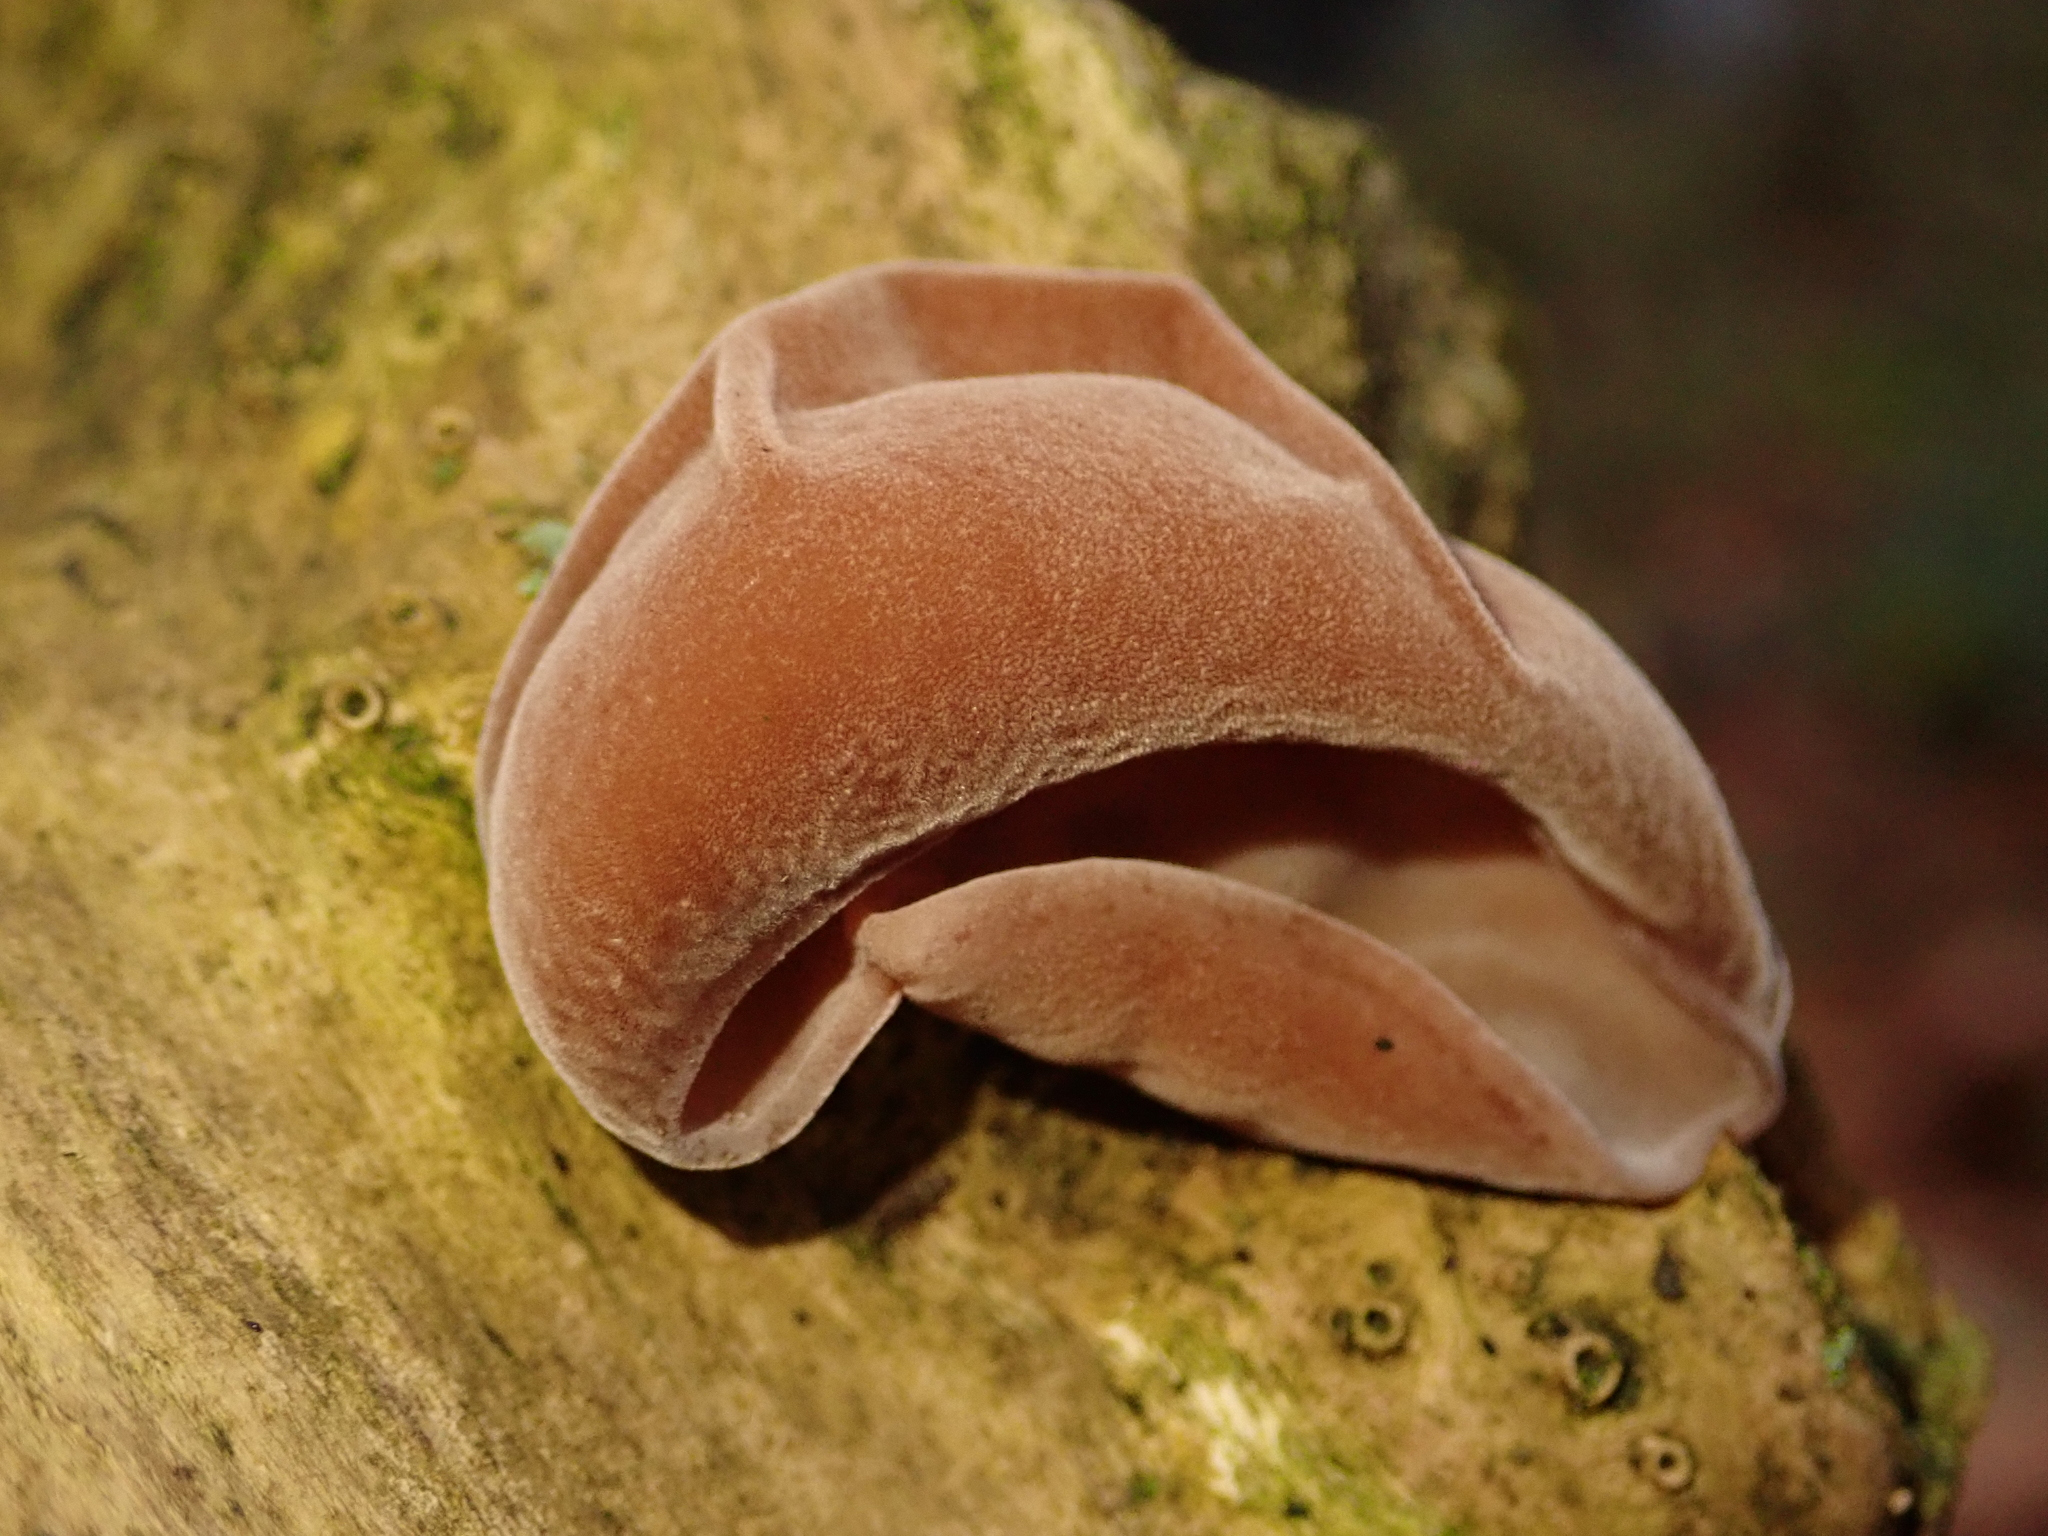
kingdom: Fungi
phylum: Basidiomycota
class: Agaricomycetes
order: Auriculariales
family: Auriculariaceae
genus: Auricularia
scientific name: Auricularia auricula-judae
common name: Jelly ear
